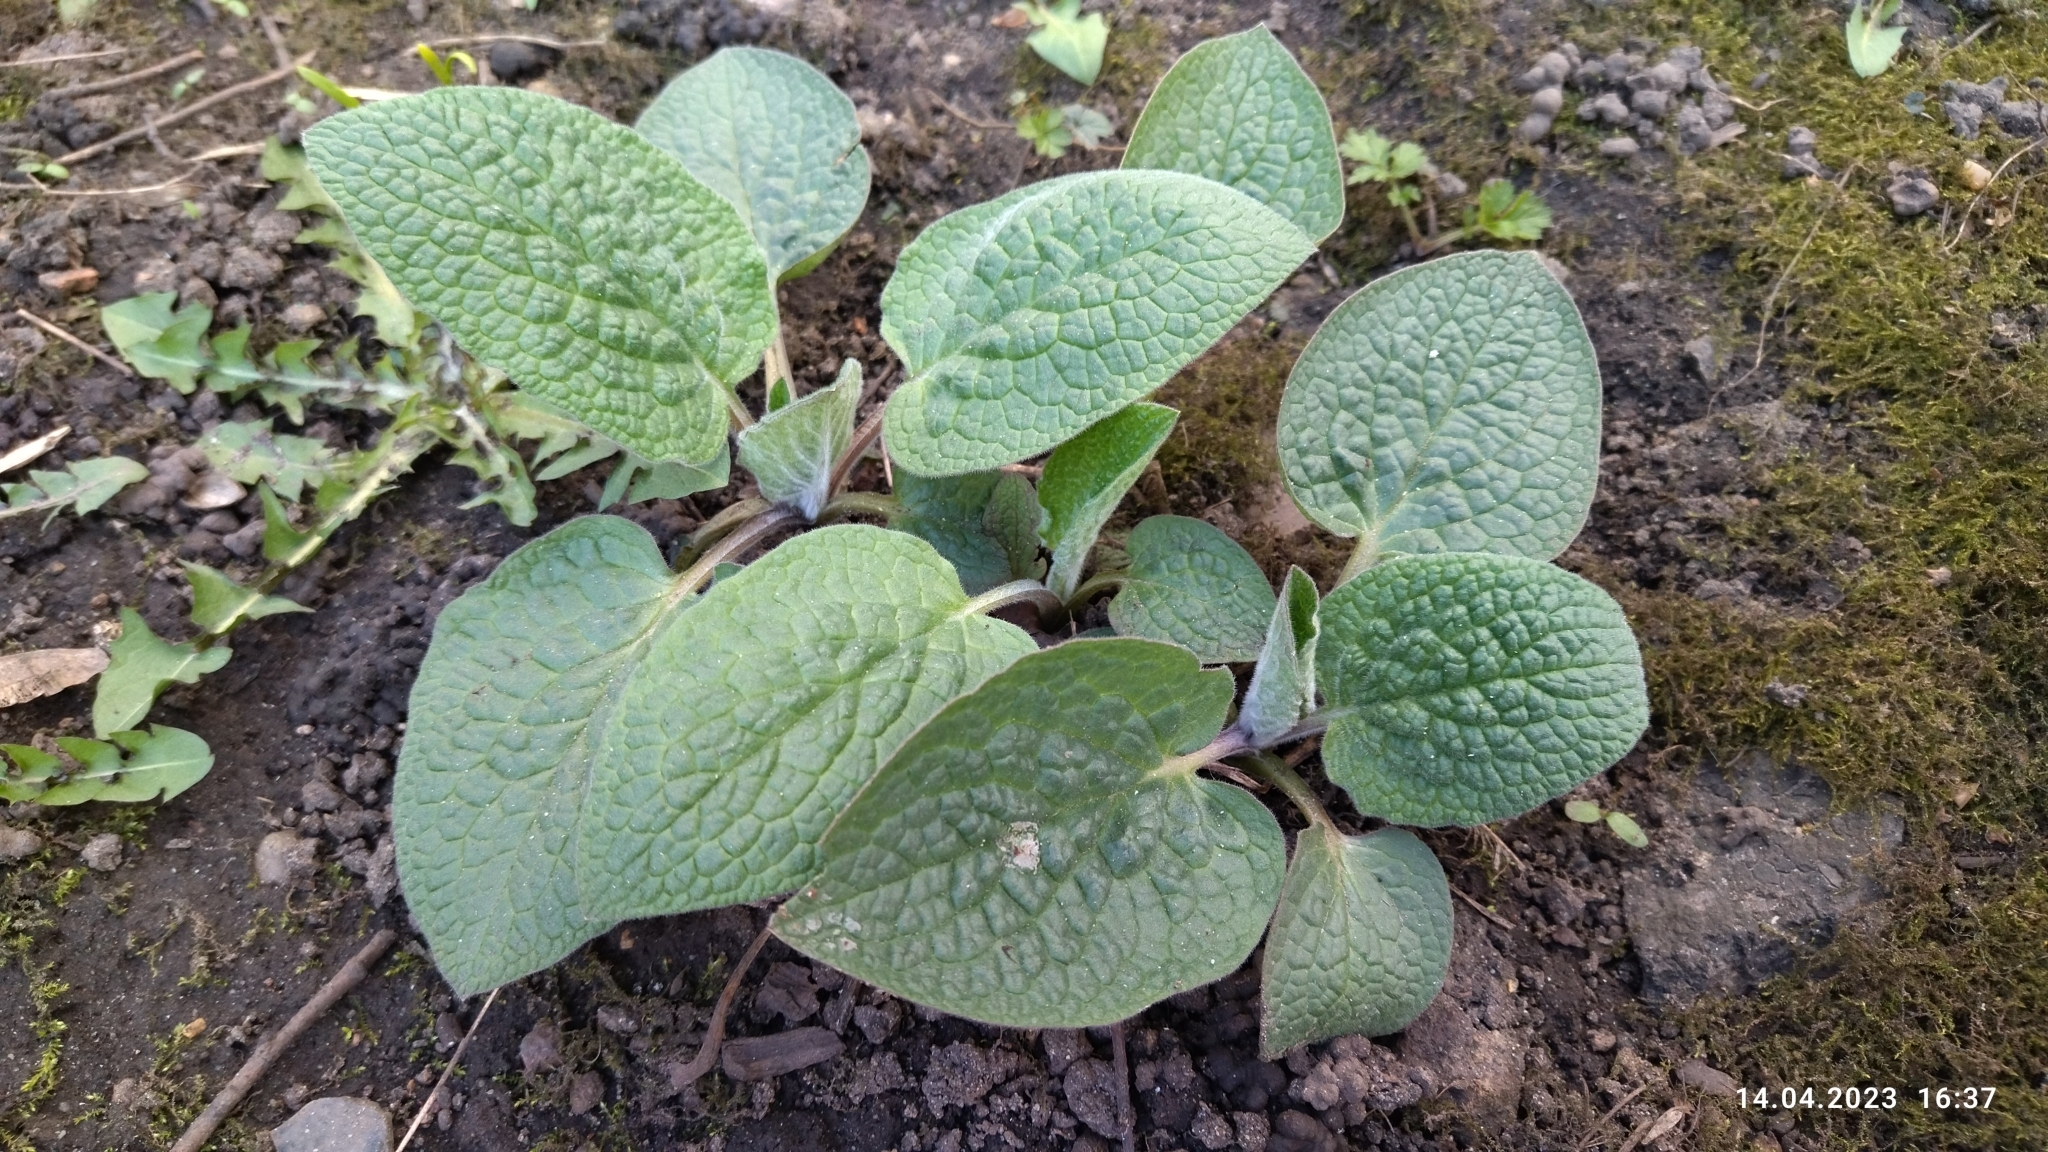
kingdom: Plantae
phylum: Tracheophyta
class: Magnoliopsida
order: Boraginales
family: Boraginaceae
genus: Symphytum
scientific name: Symphytum caucasicum
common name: Caucasian comfrey
